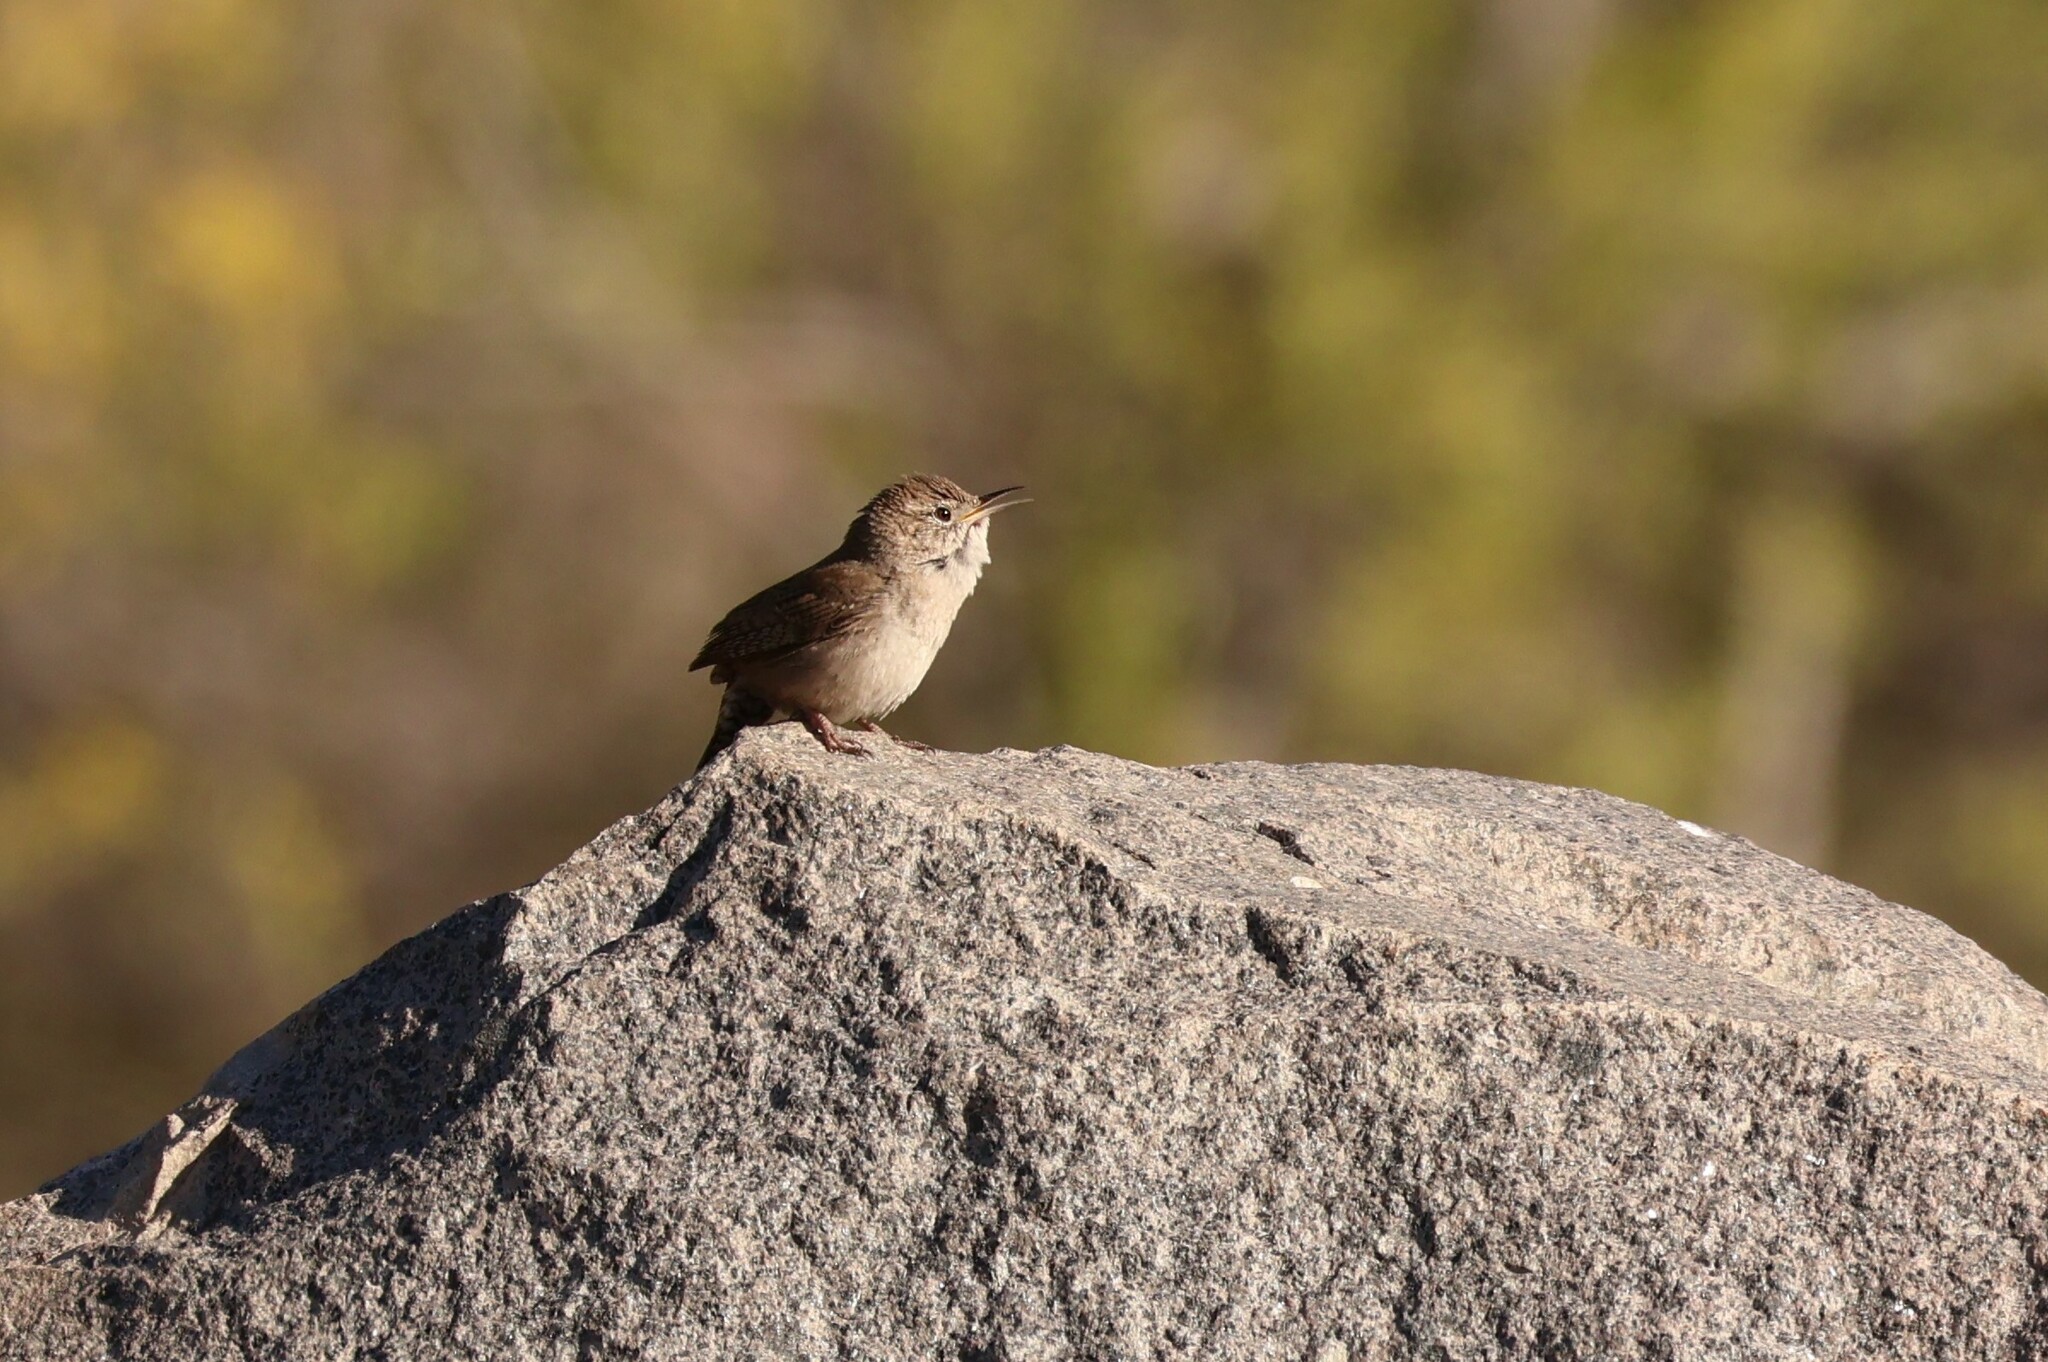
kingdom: Animalia
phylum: Chordata
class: Aves
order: Passeriformes
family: Troglodytidae
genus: Troglodytes
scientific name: Troglodytes aedon
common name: House wren
